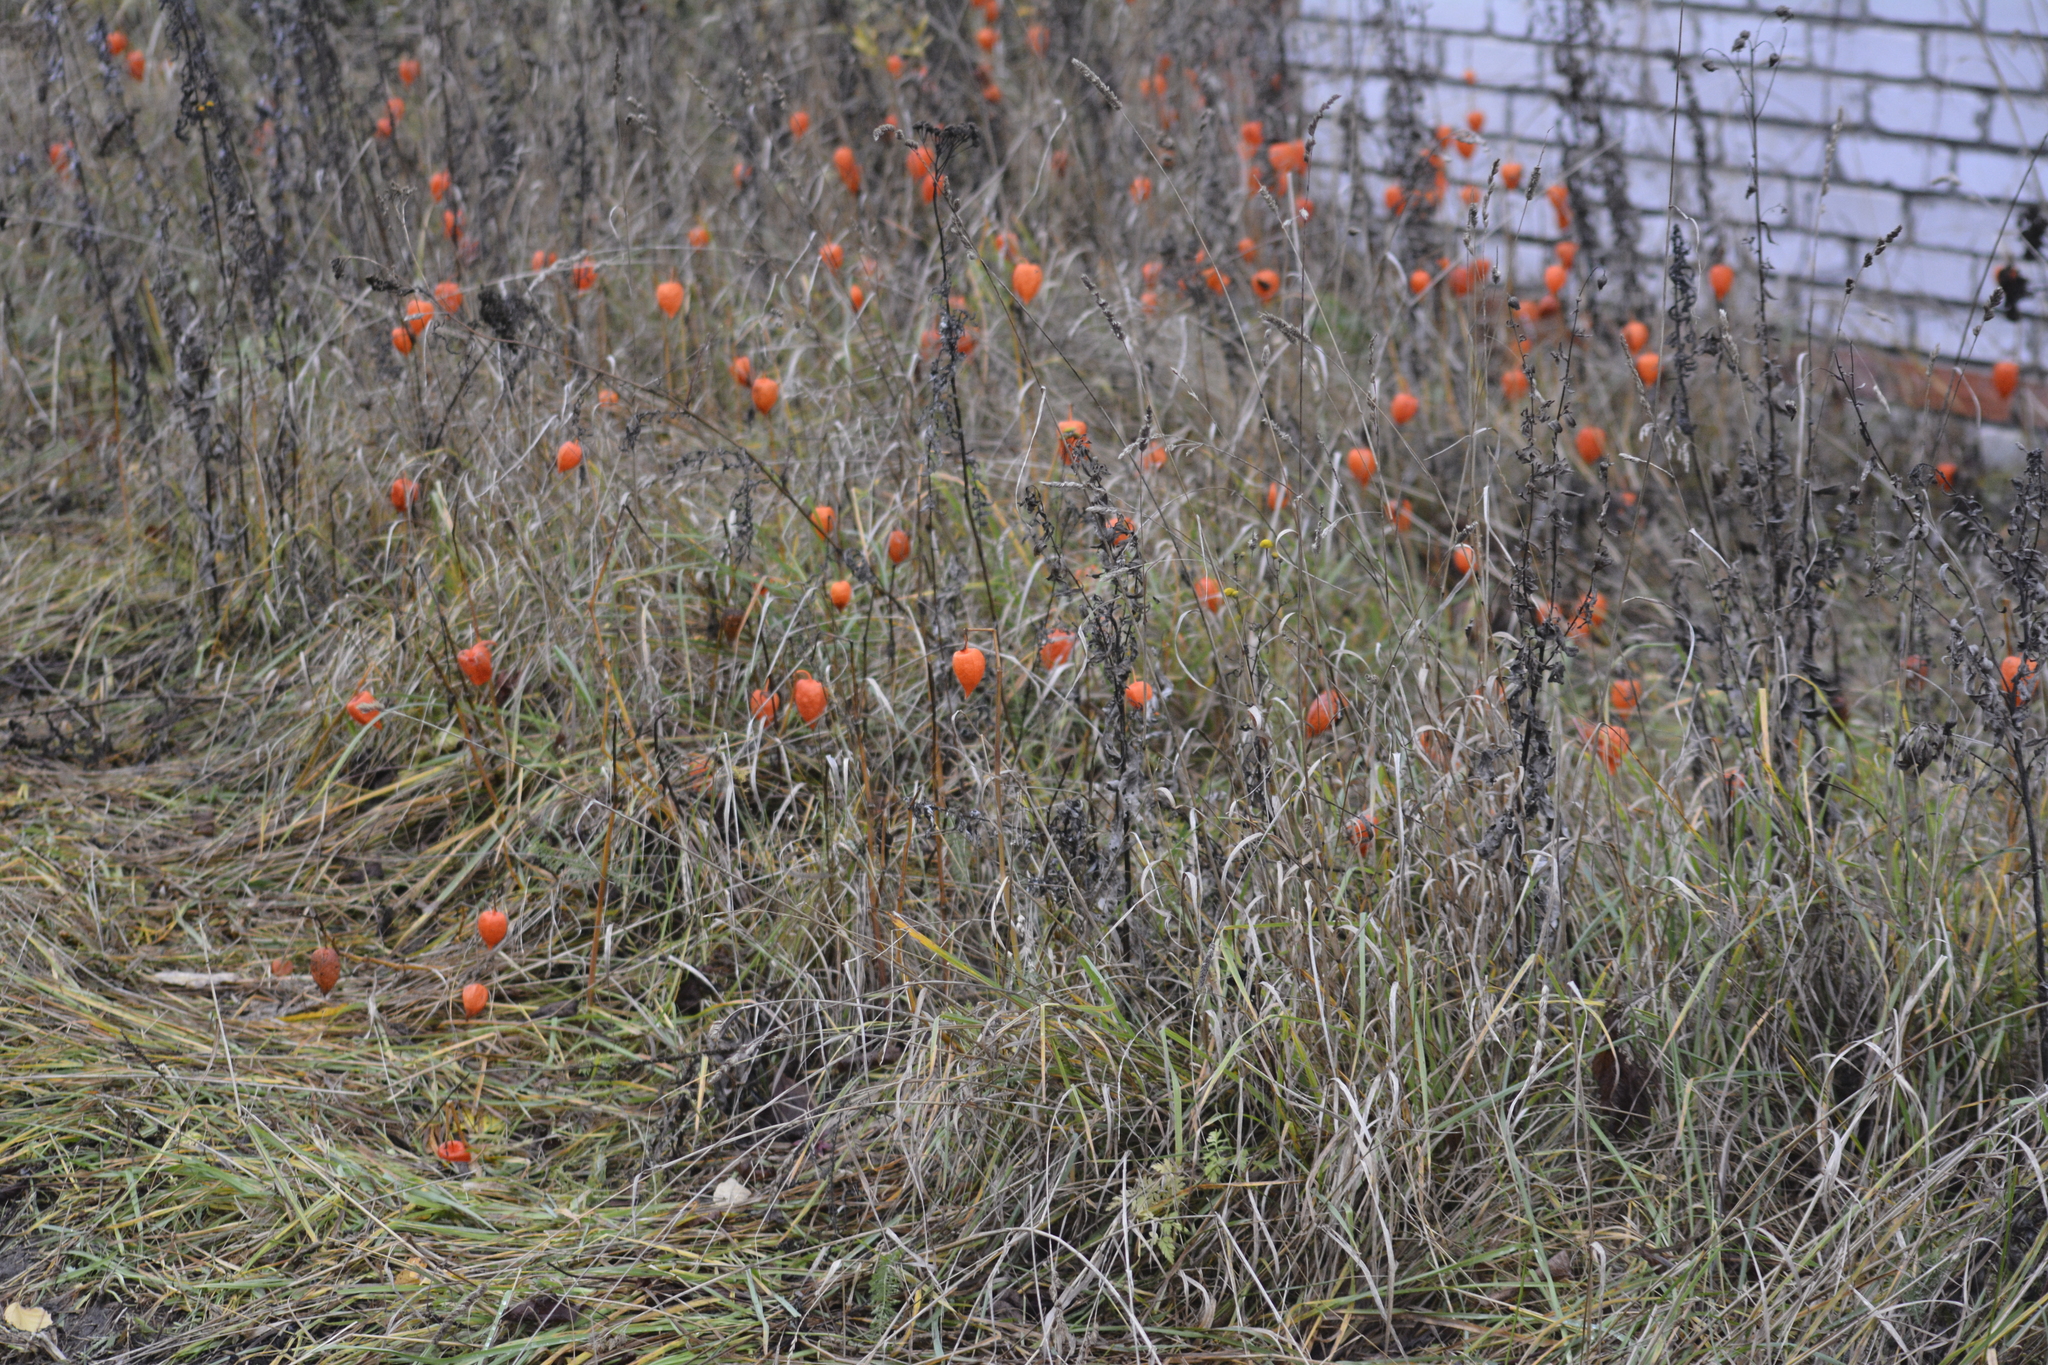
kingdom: Plantae
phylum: Tracheophyta
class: Magnoliopsida
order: Solanales
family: Solanaceae
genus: Alkekengi
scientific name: Alkekengi officinarum
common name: Japanese-lantern
